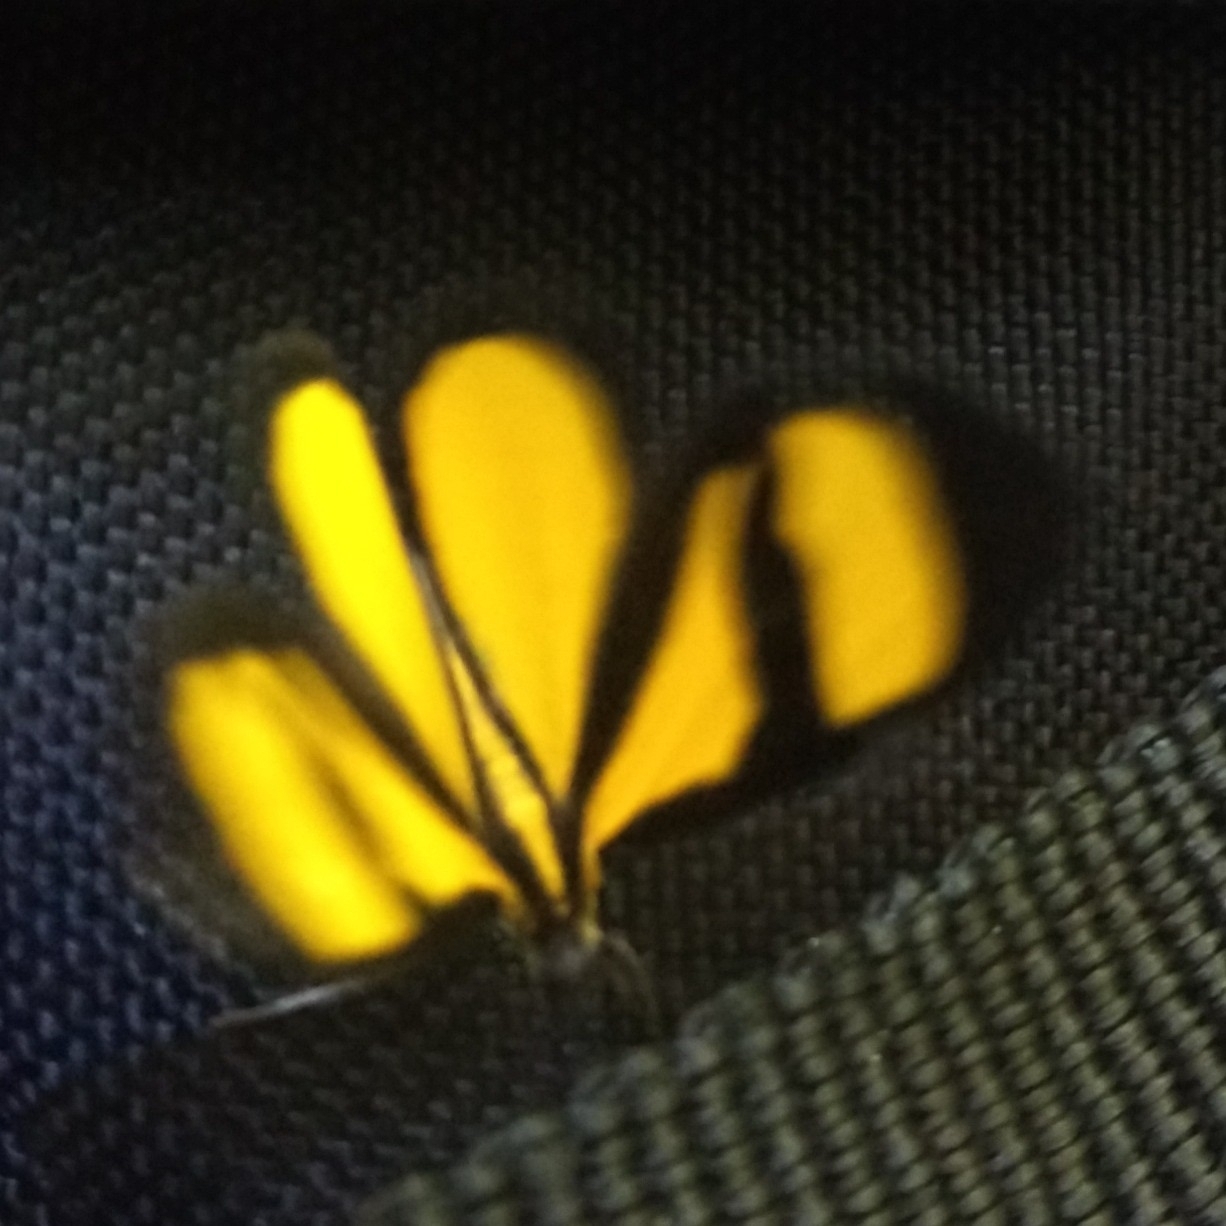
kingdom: Animalia
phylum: Arthropoda
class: Insecta
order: Lepidoptera
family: Geometridae
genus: Smicropus
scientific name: Smicropus laeta
